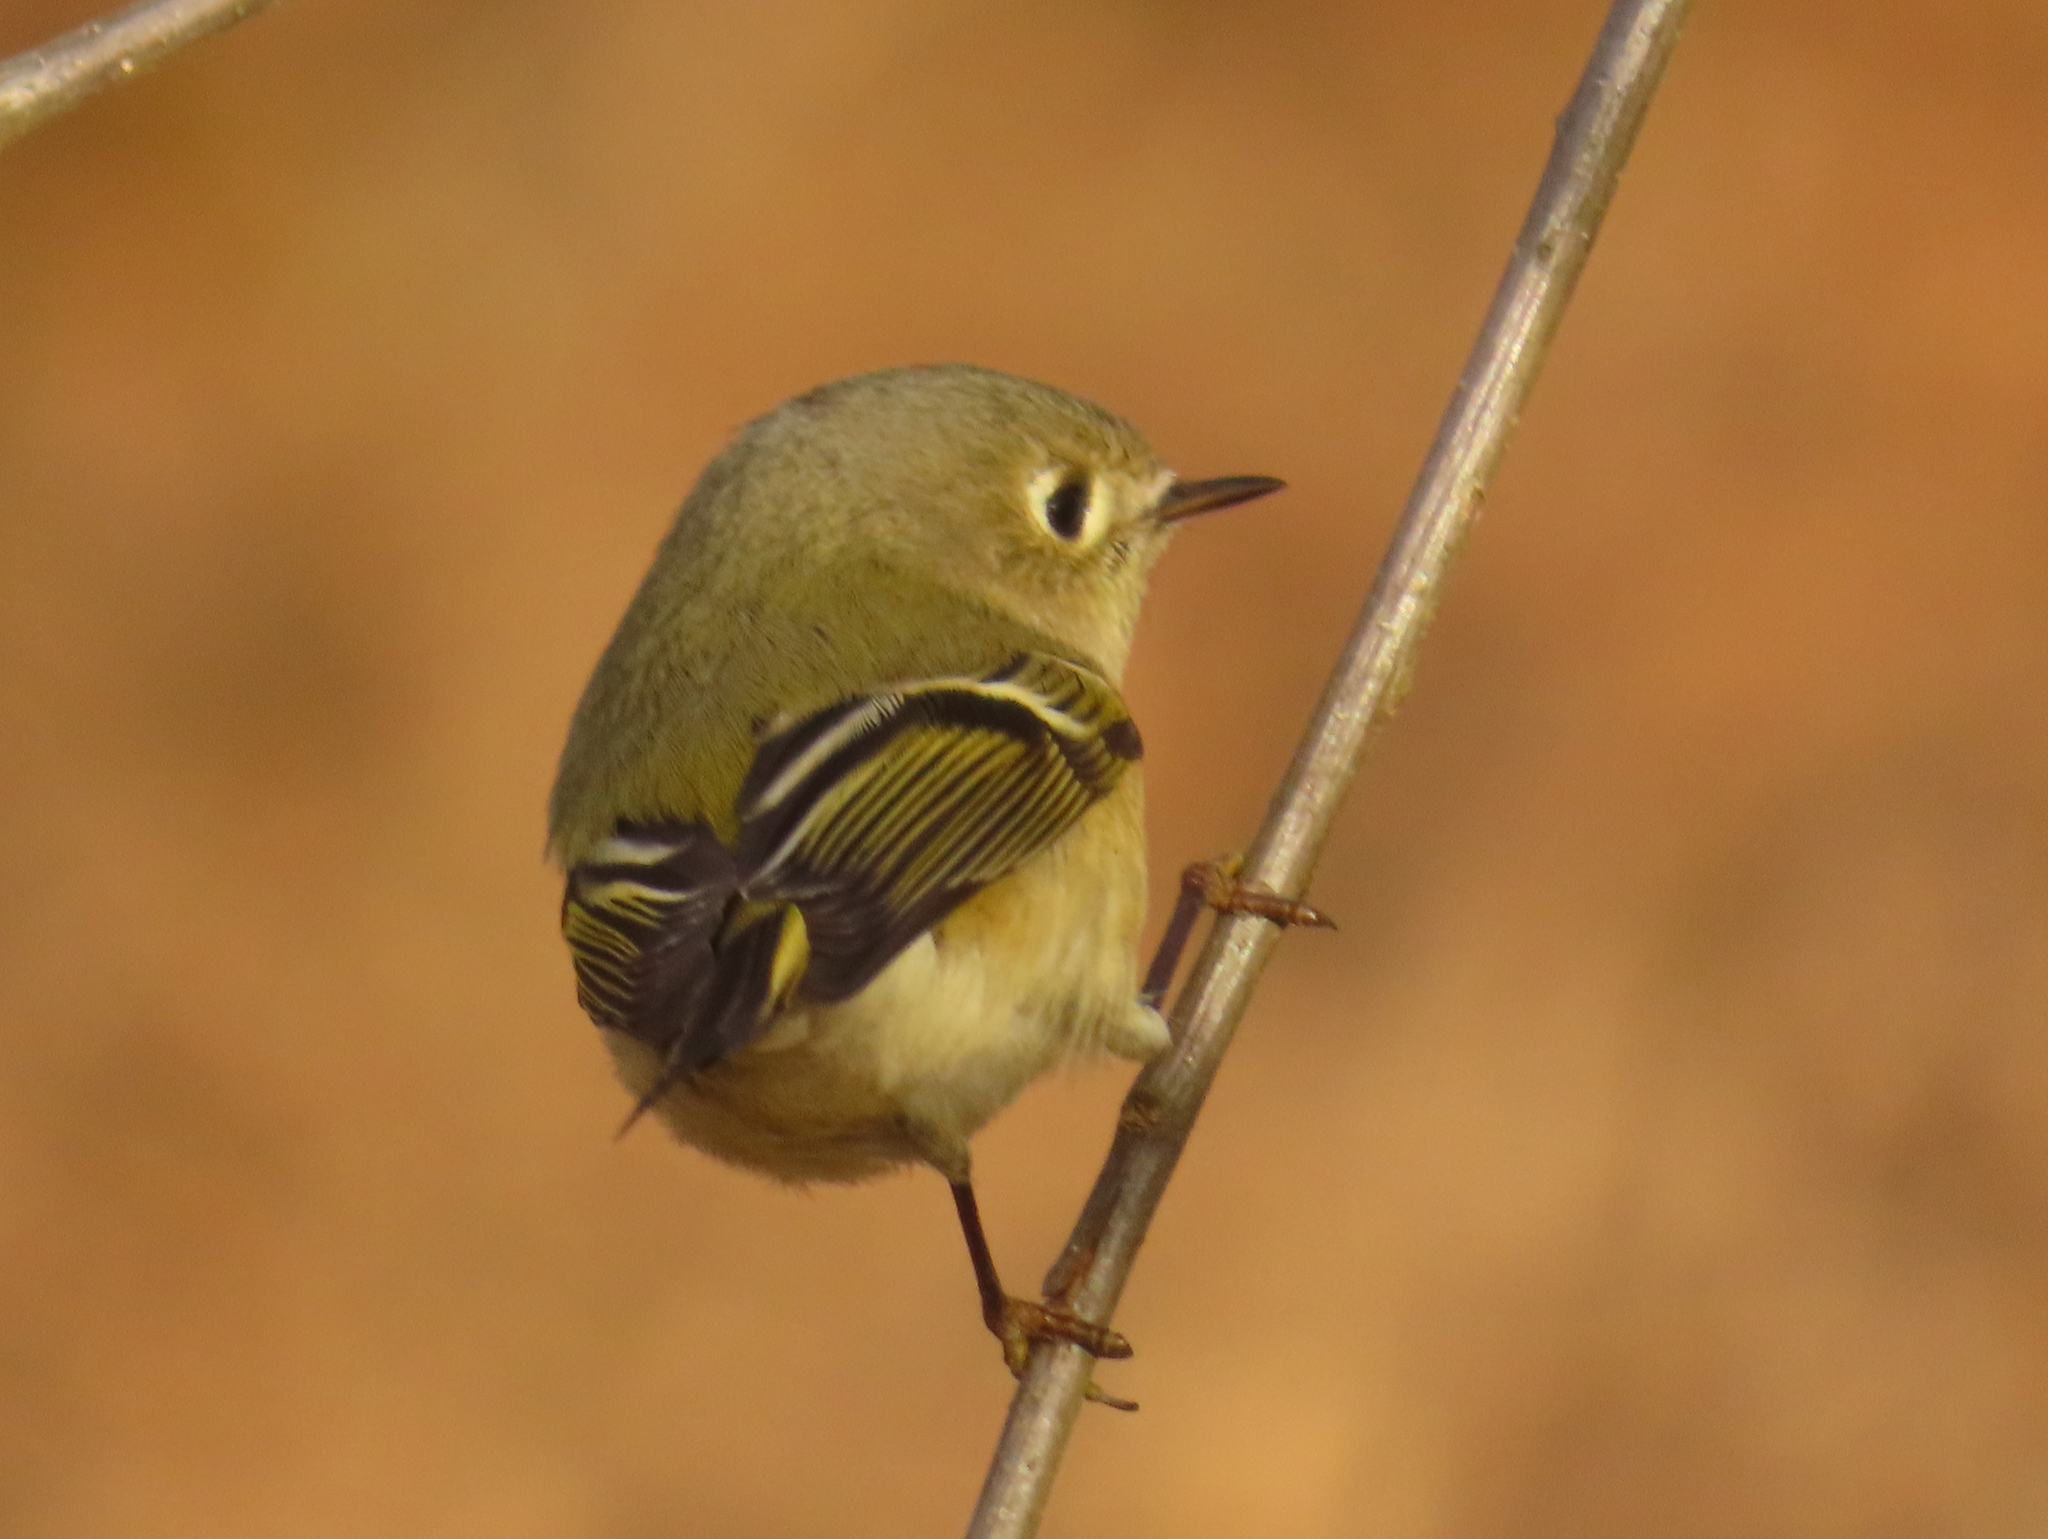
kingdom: Animalia
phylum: Chordata
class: Aves
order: Passeriformes
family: Regulidae
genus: Regulus
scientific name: Regulus calendula
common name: Ruby-crowned kinglet
